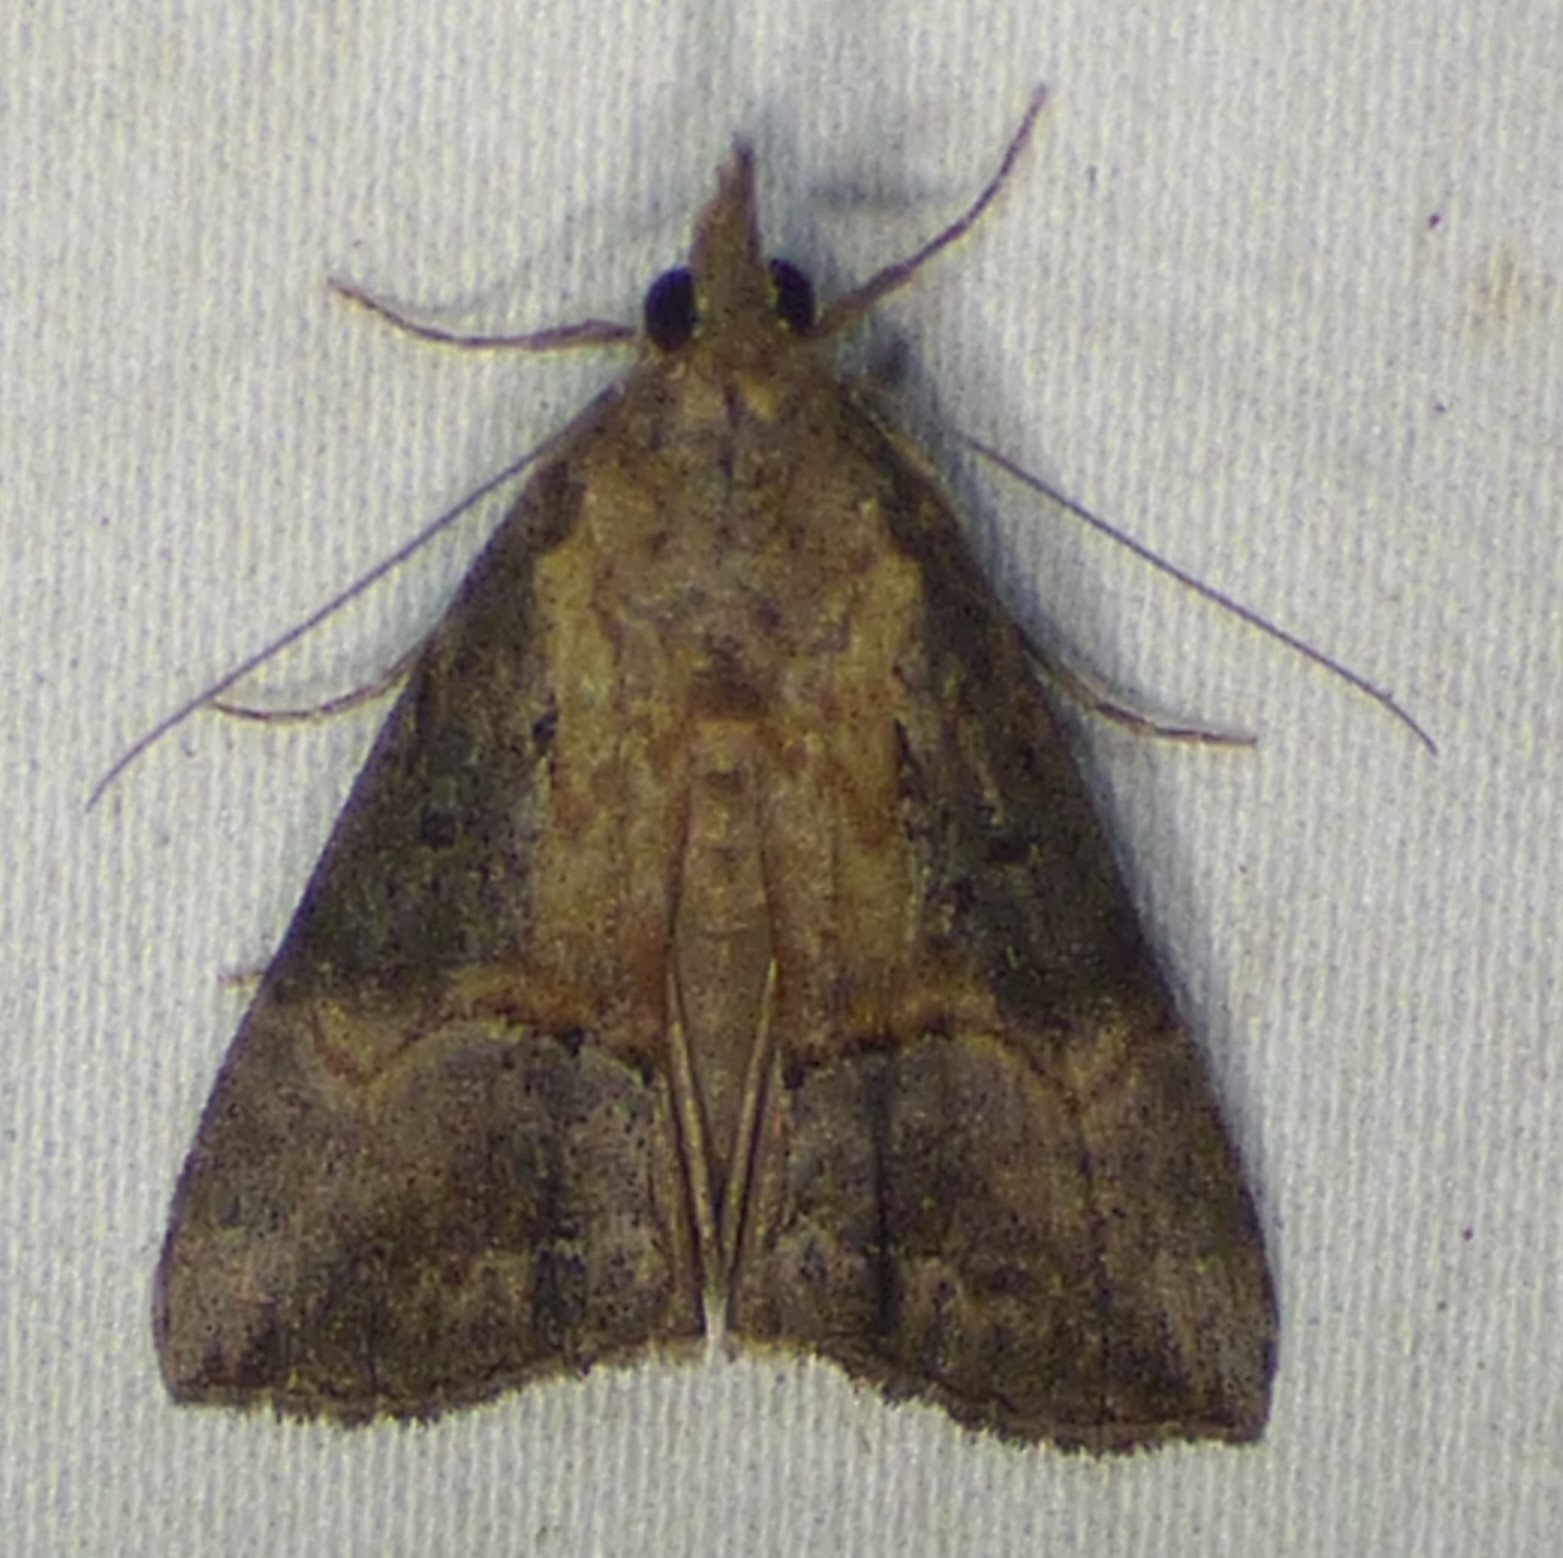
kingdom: Animalia
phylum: Arthropoda
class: Insecta
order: Lepidoptera
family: Erebidae
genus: Hypena
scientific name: Hypena scabra
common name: Green cloverworm
